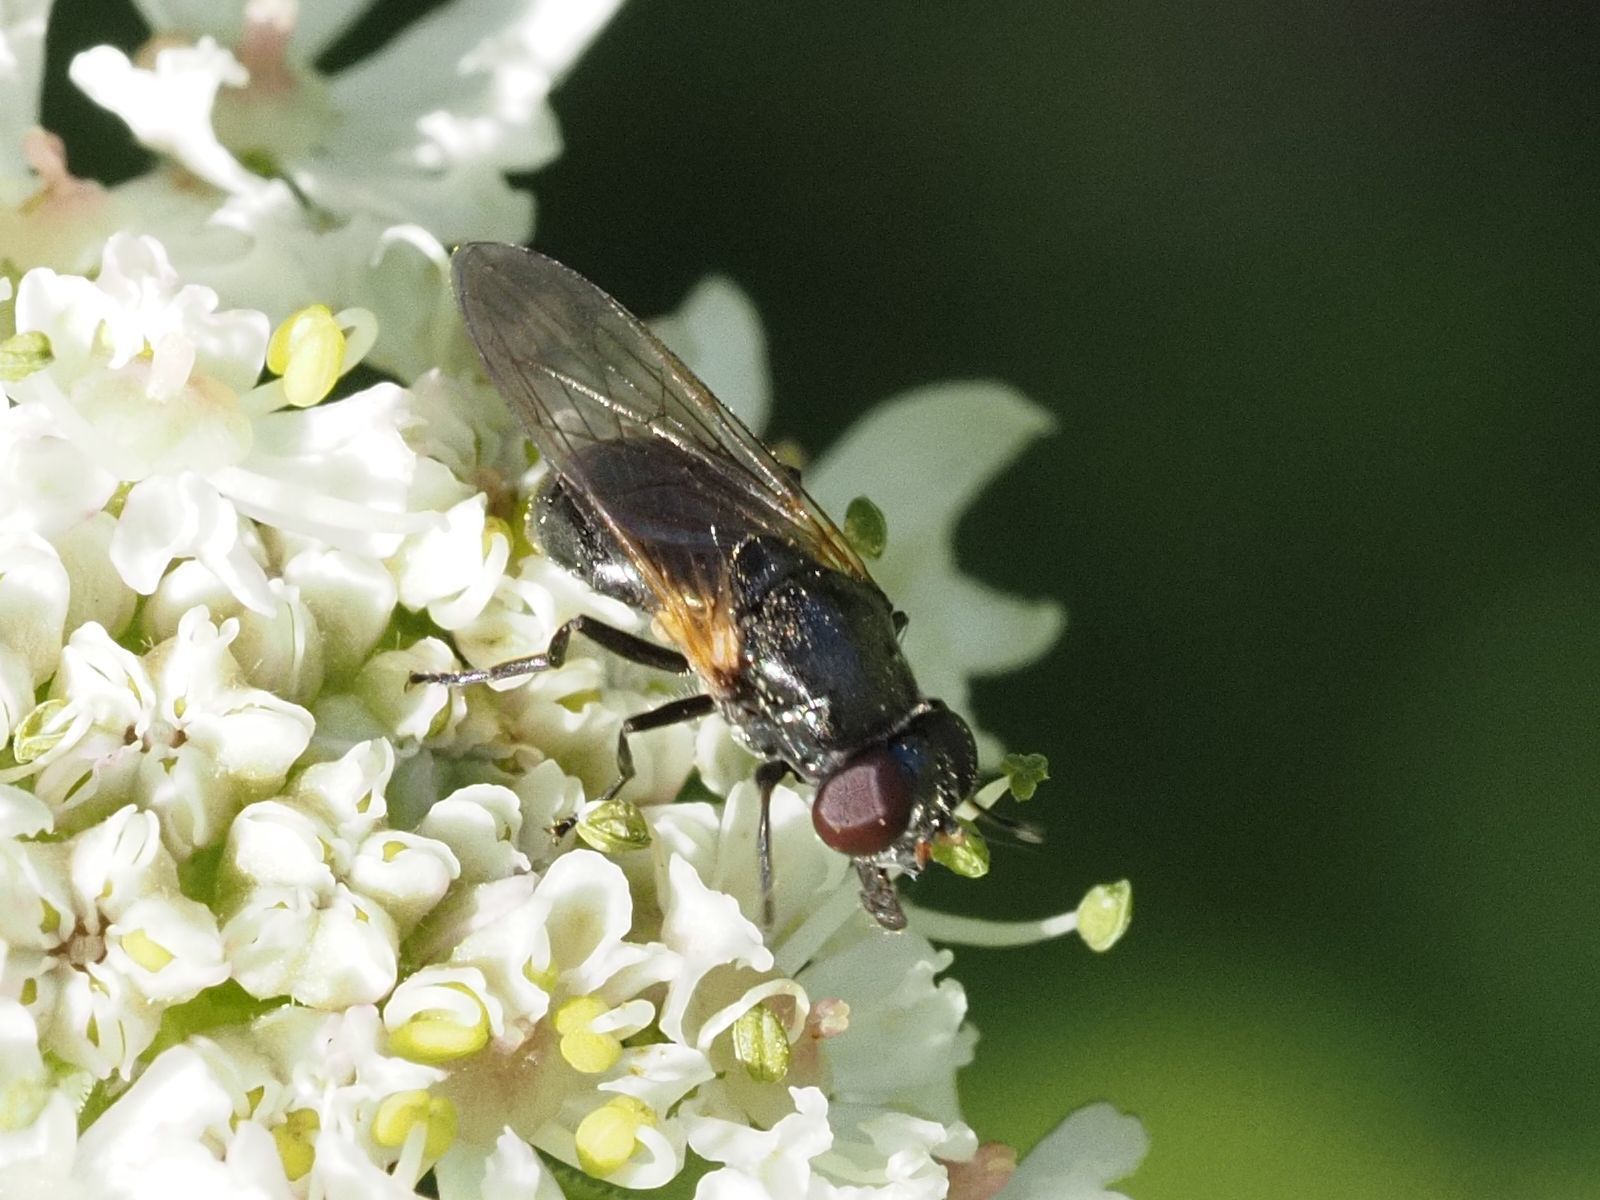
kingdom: Animalia
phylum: Arthropoda
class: Insecta
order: Diptera
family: Syrphidae
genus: Cheilosia
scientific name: Cheilosia impressa
